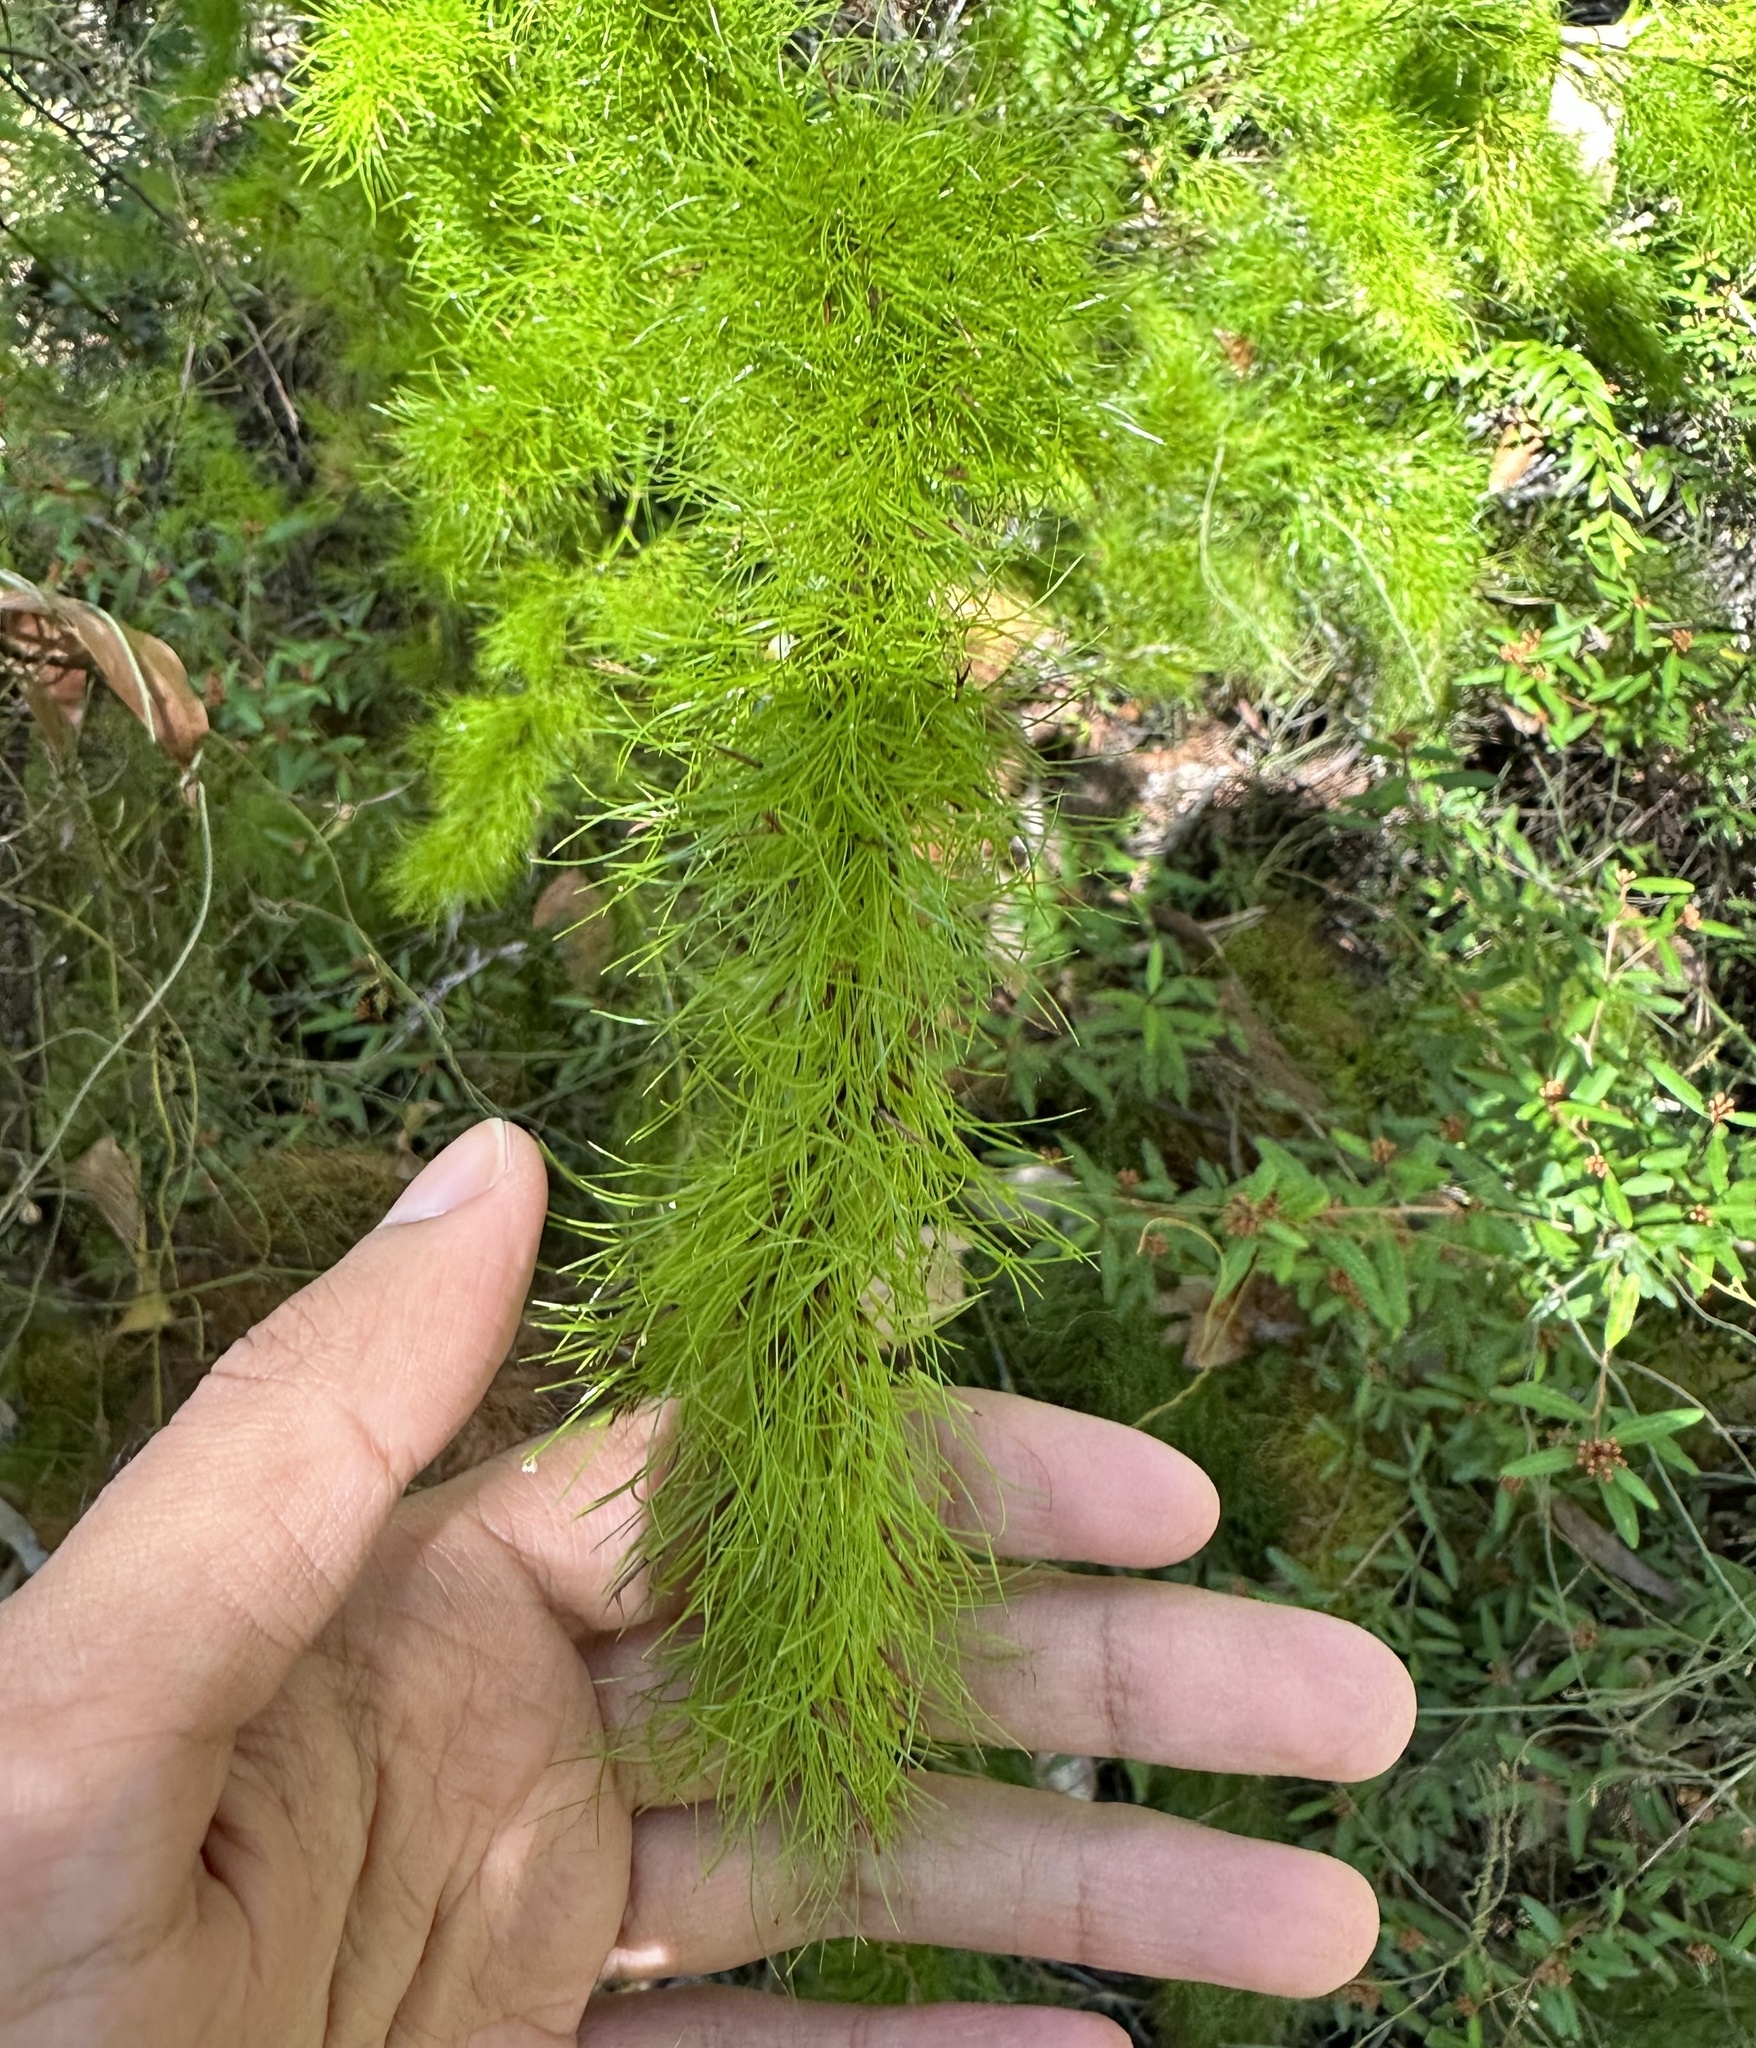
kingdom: Plantae
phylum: Tracheophyta
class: Liliopsida
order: Poales
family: Cyperaceae
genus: Caustis
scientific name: Caustis blakei
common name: Foxtail-fern
